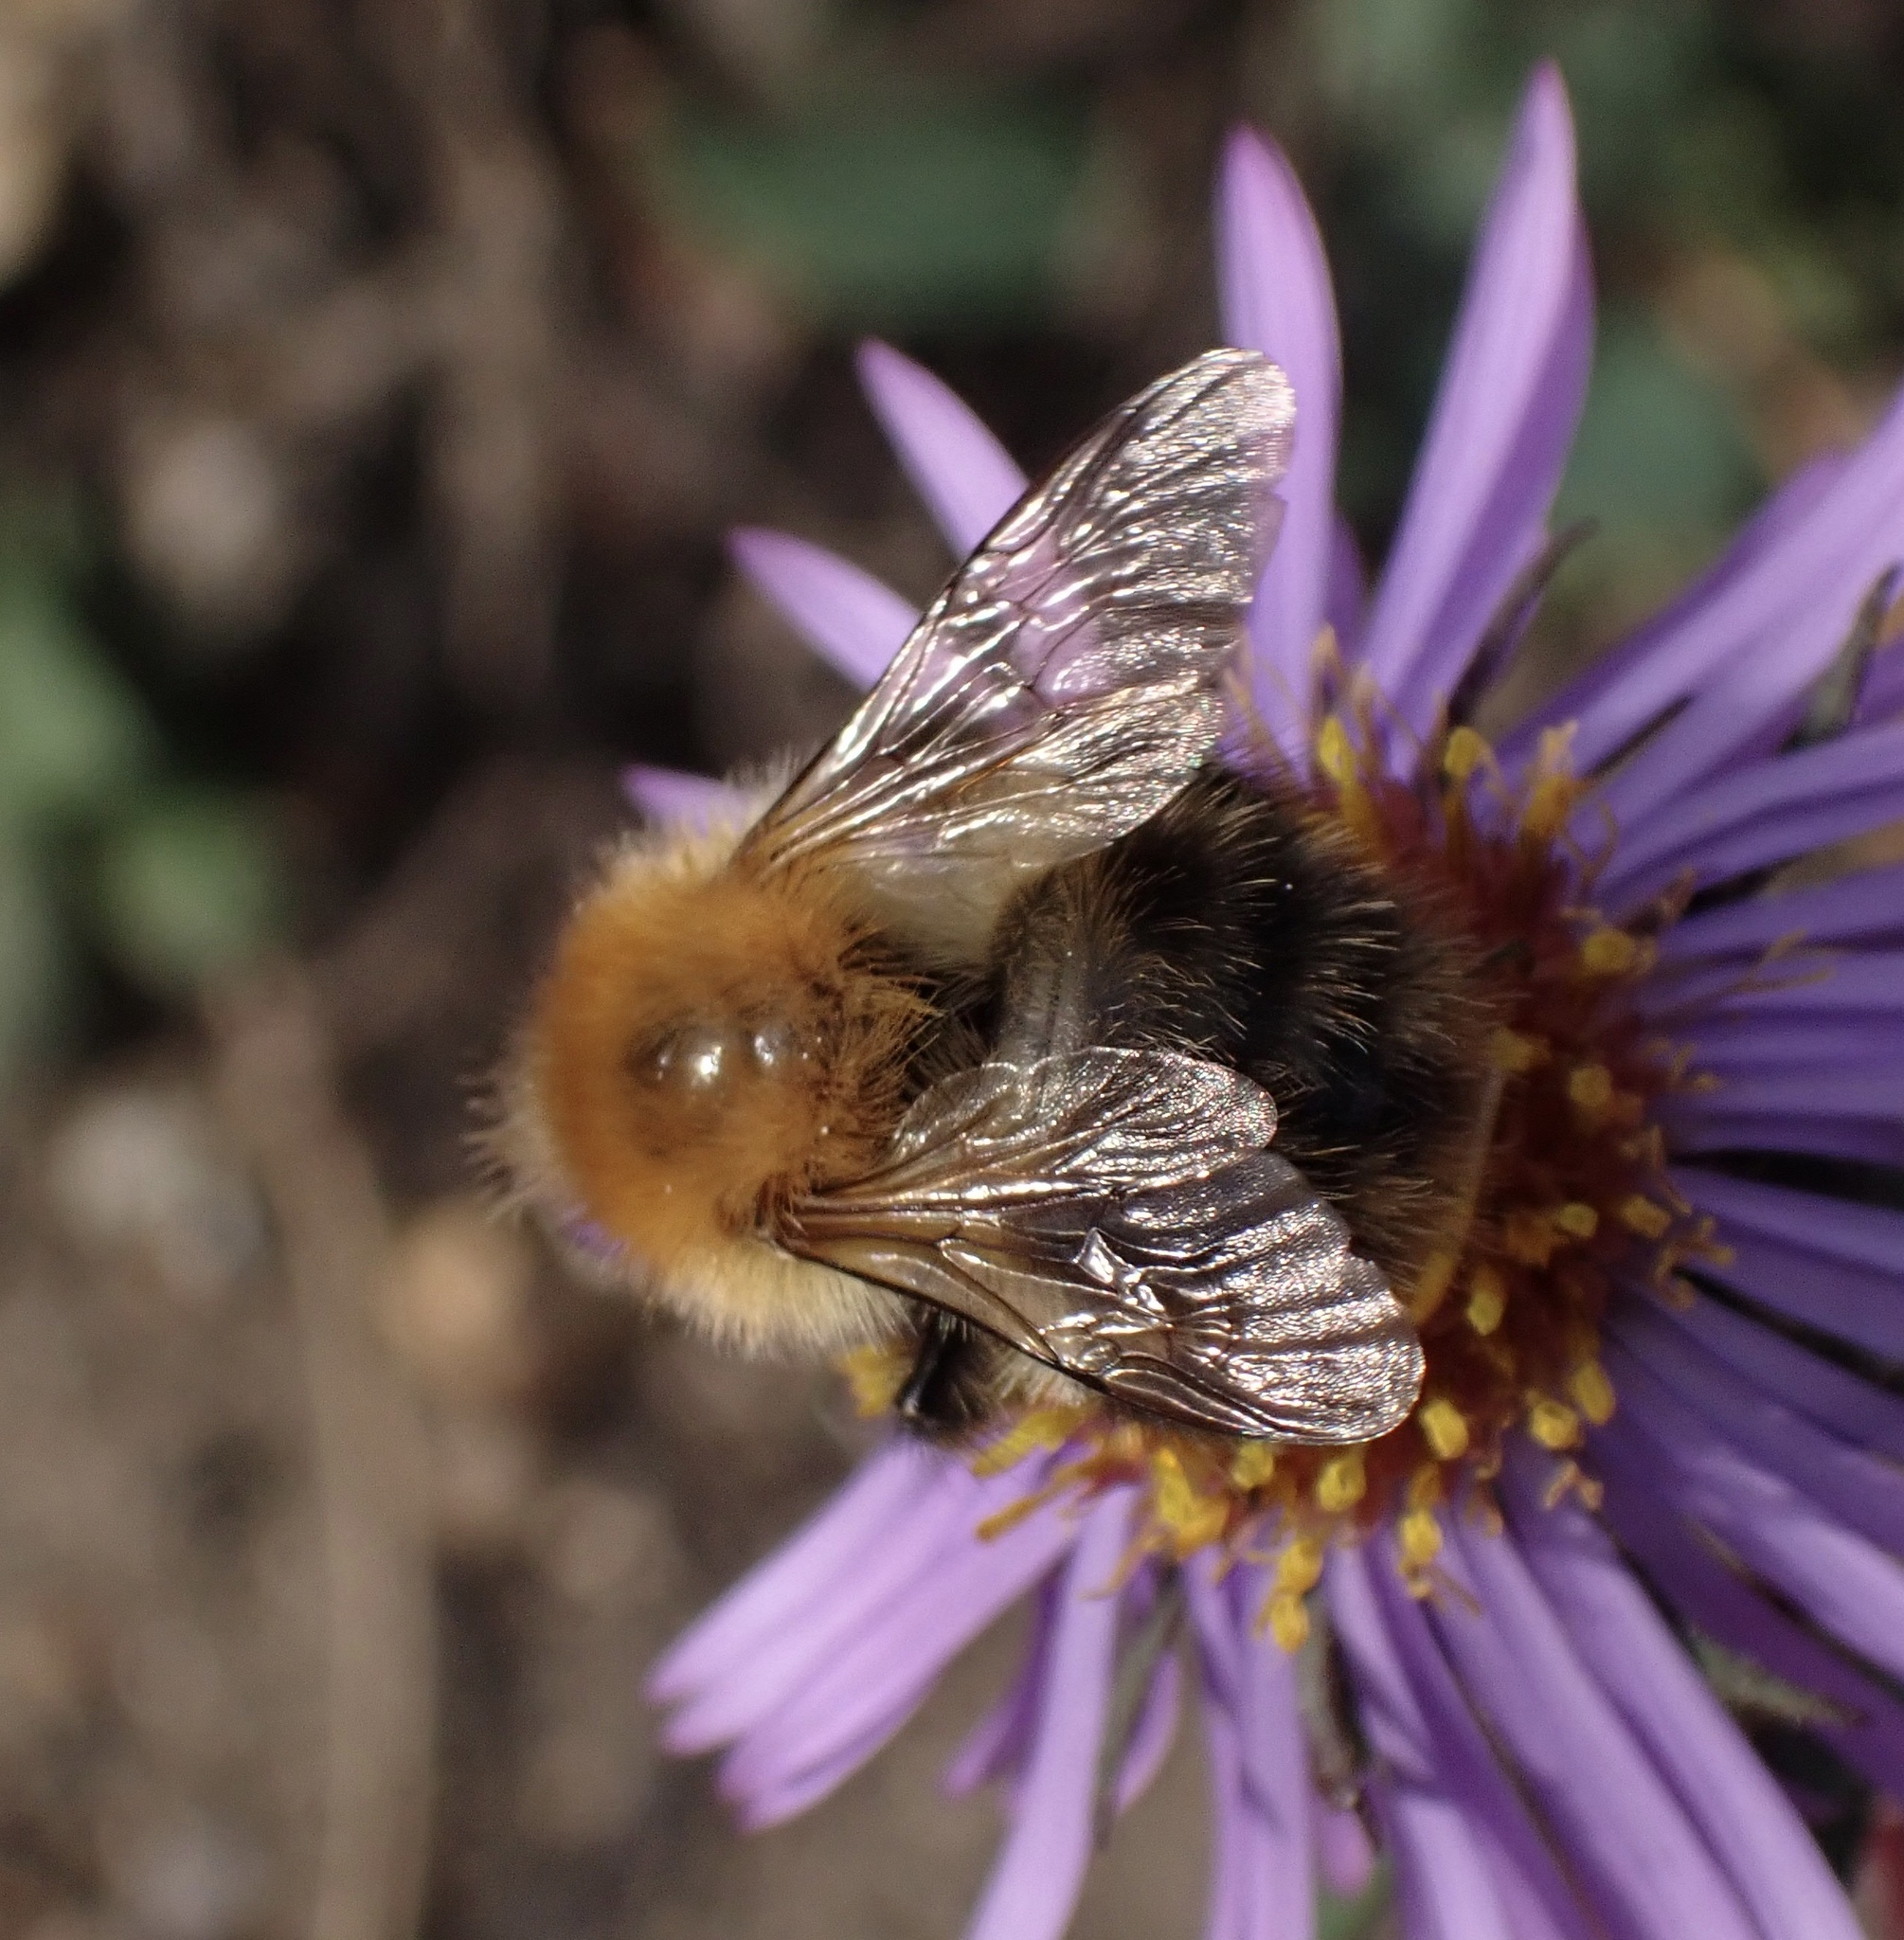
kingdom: Animalia
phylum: Arthropoda
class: Insecta
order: Hymenoptera
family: Apidae
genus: Bombus
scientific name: Bombus pascuorum
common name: Common carder bee
